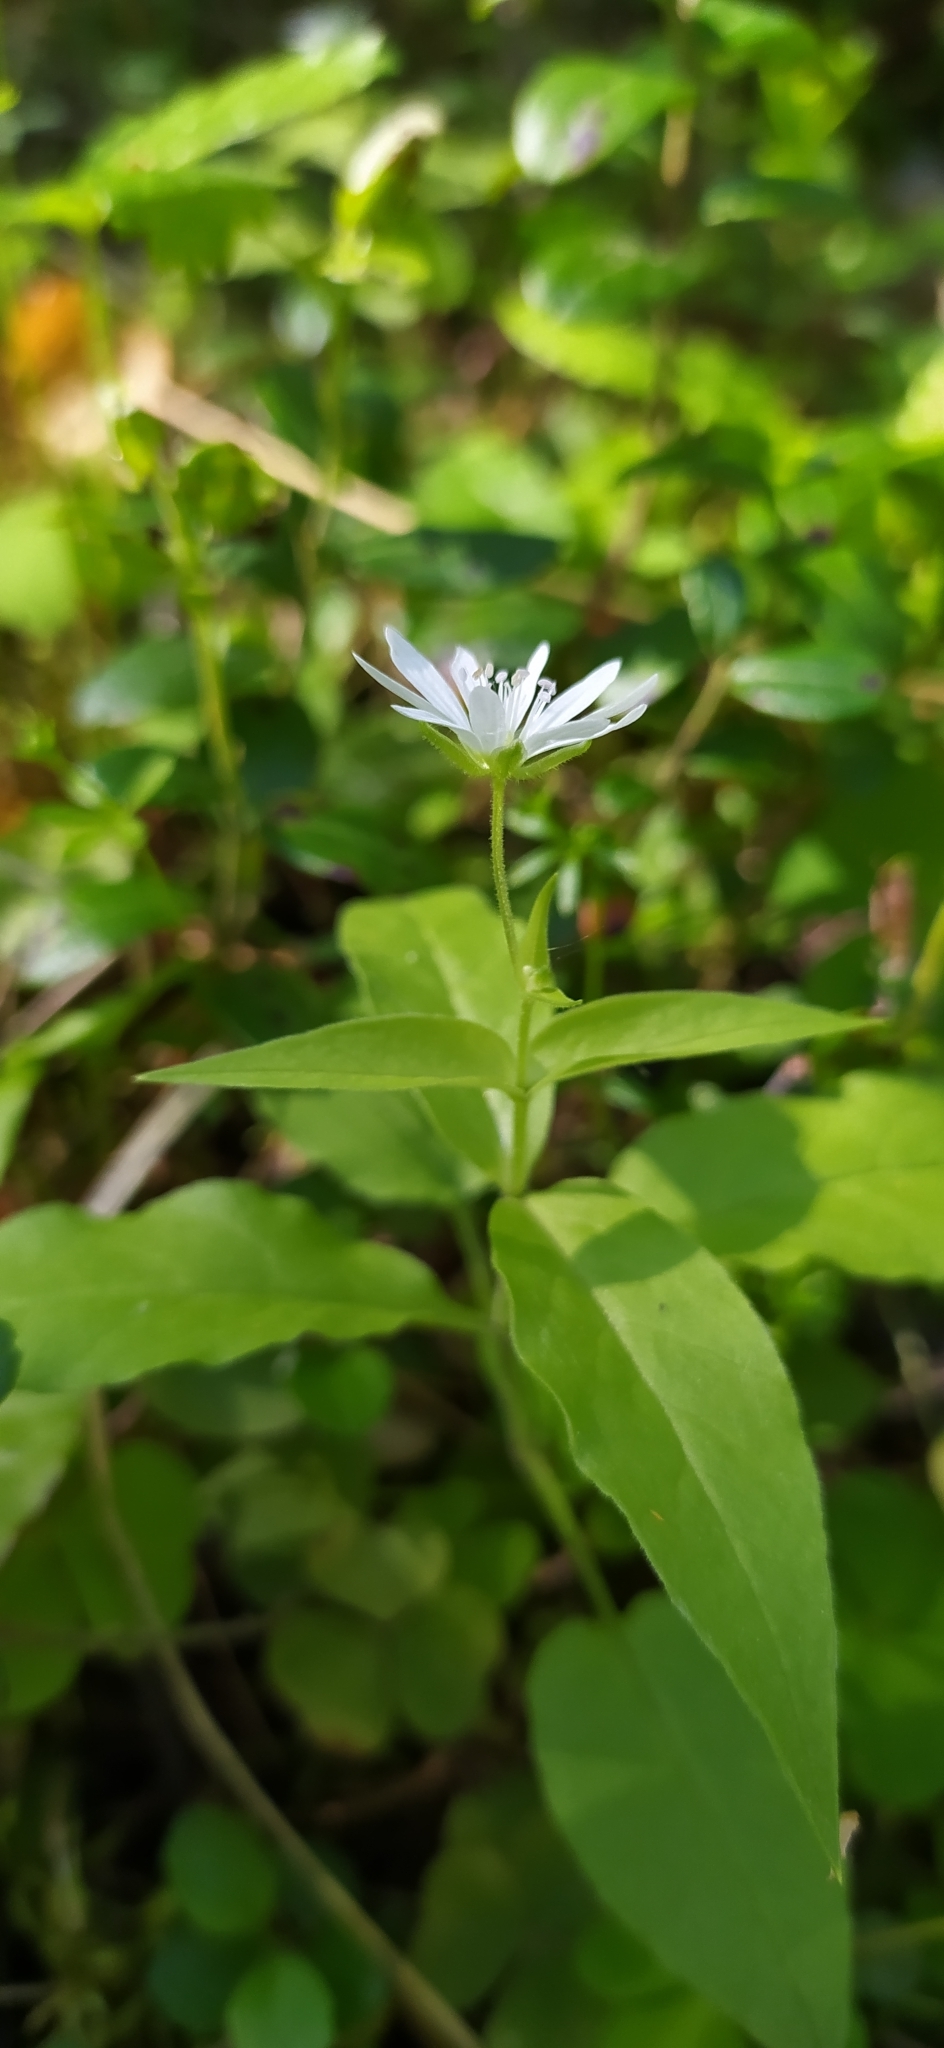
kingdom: Plantae
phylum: Tracheophyta
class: Magnoliopsida
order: Caryophyllales
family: Caryophyllaceae
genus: Stellaria
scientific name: Stellaria bungeana
